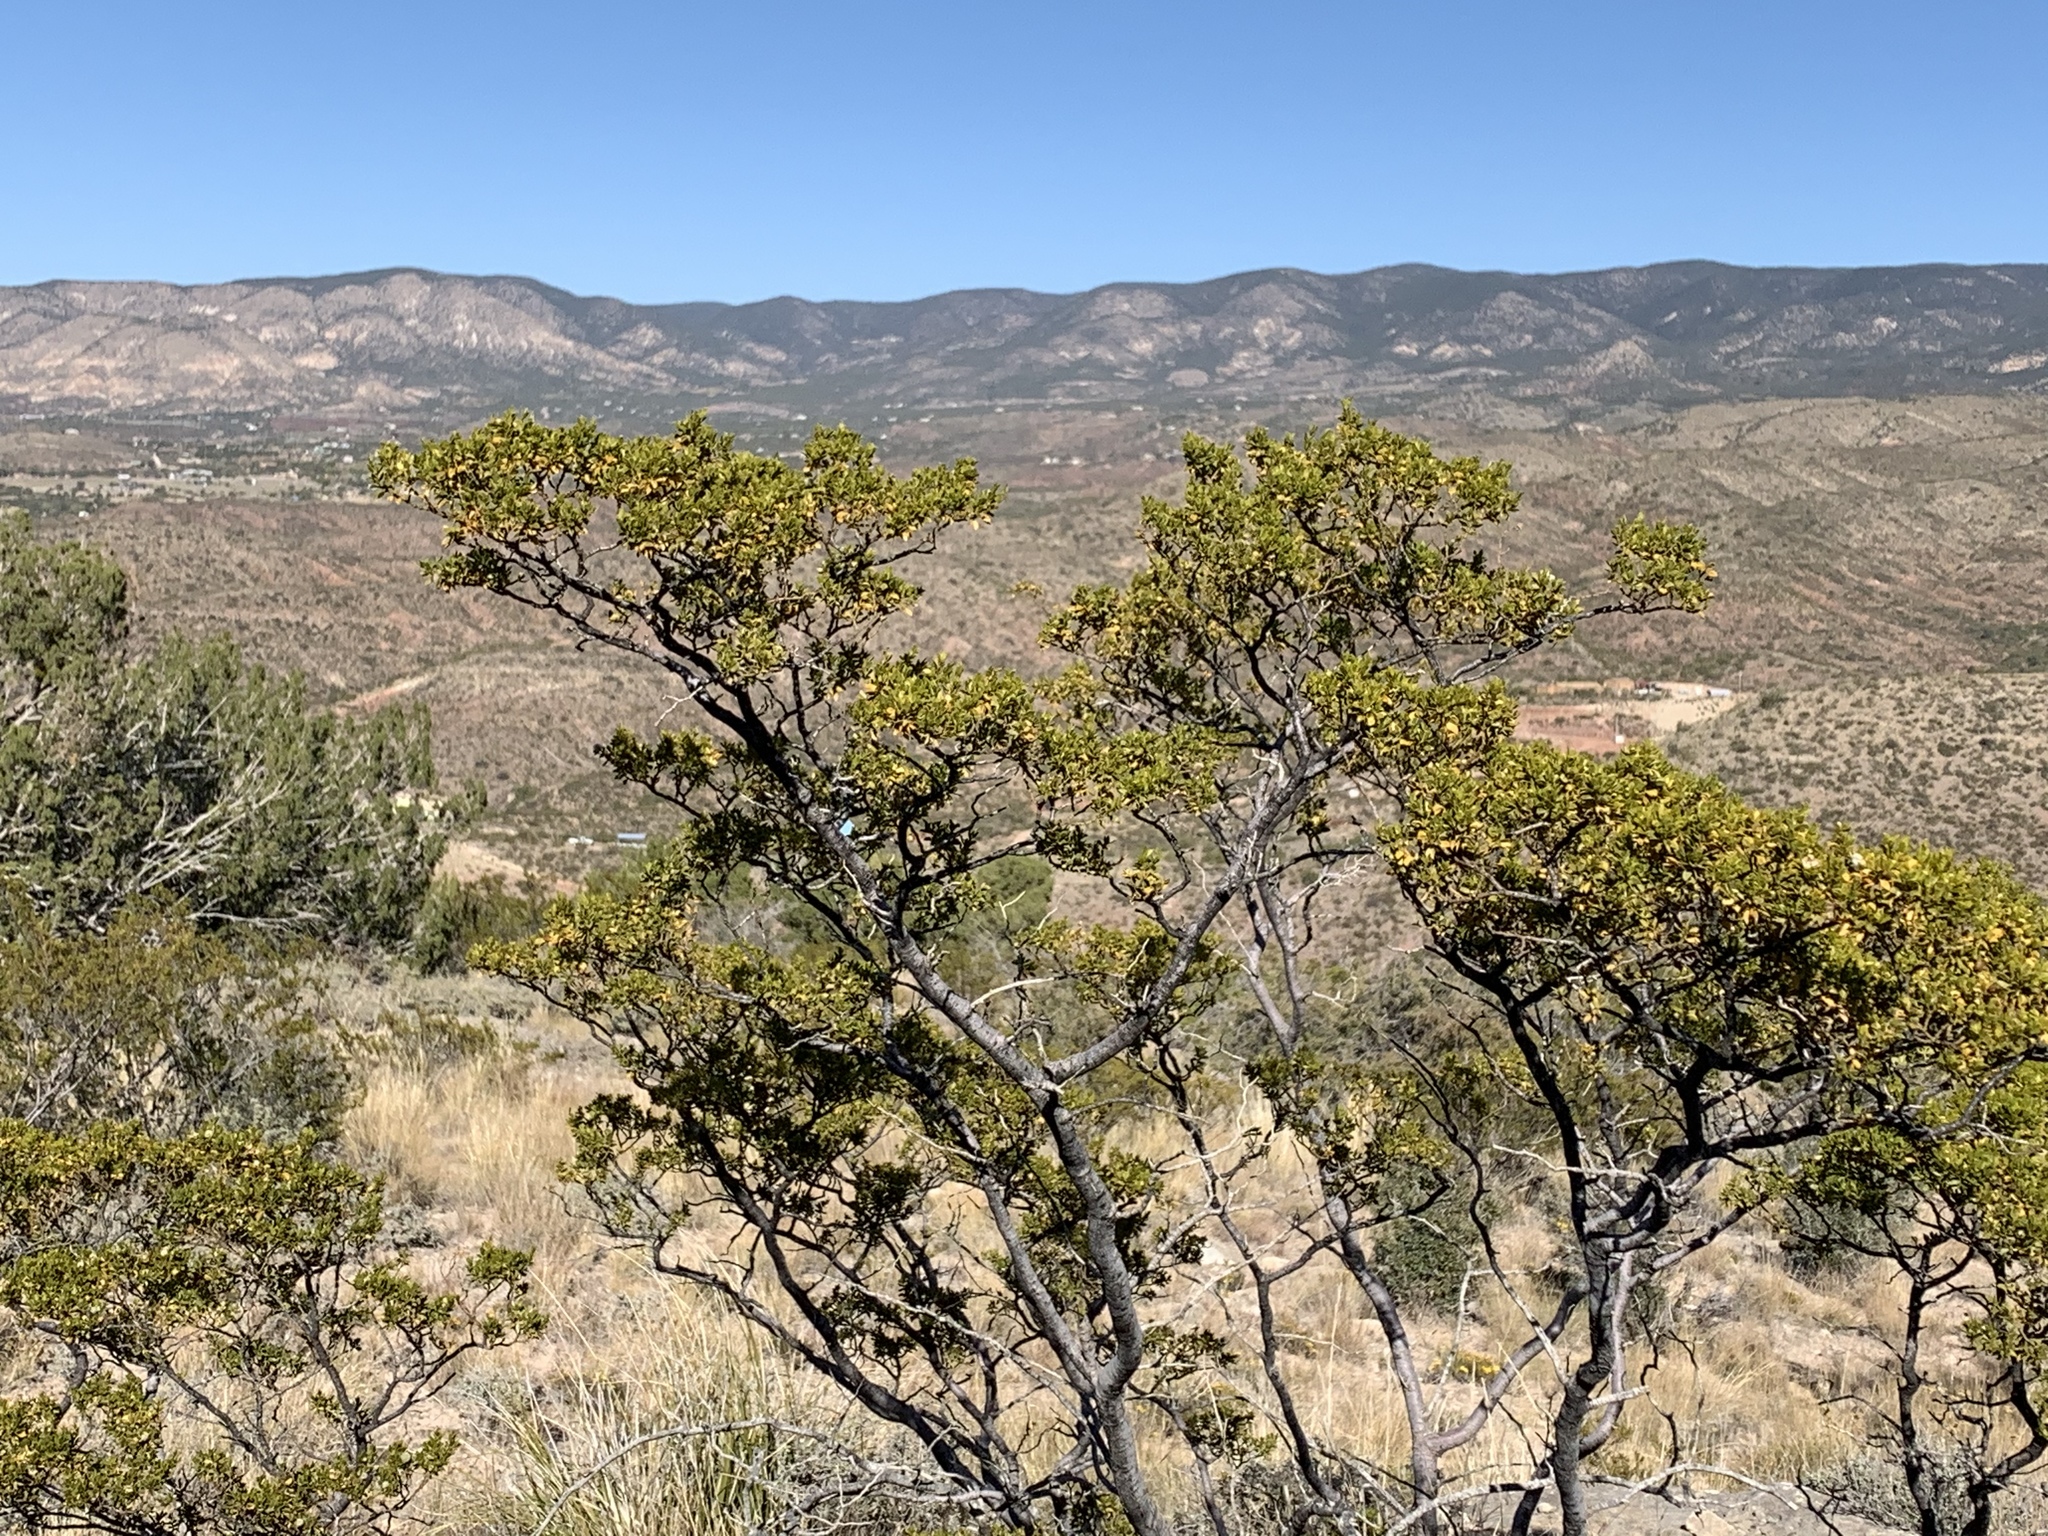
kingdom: Plantae
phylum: Tracheophyta
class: Magnoliopsida
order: Zygophyllales
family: Zygophyllaceae
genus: Larrea
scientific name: Larrea tridentata
